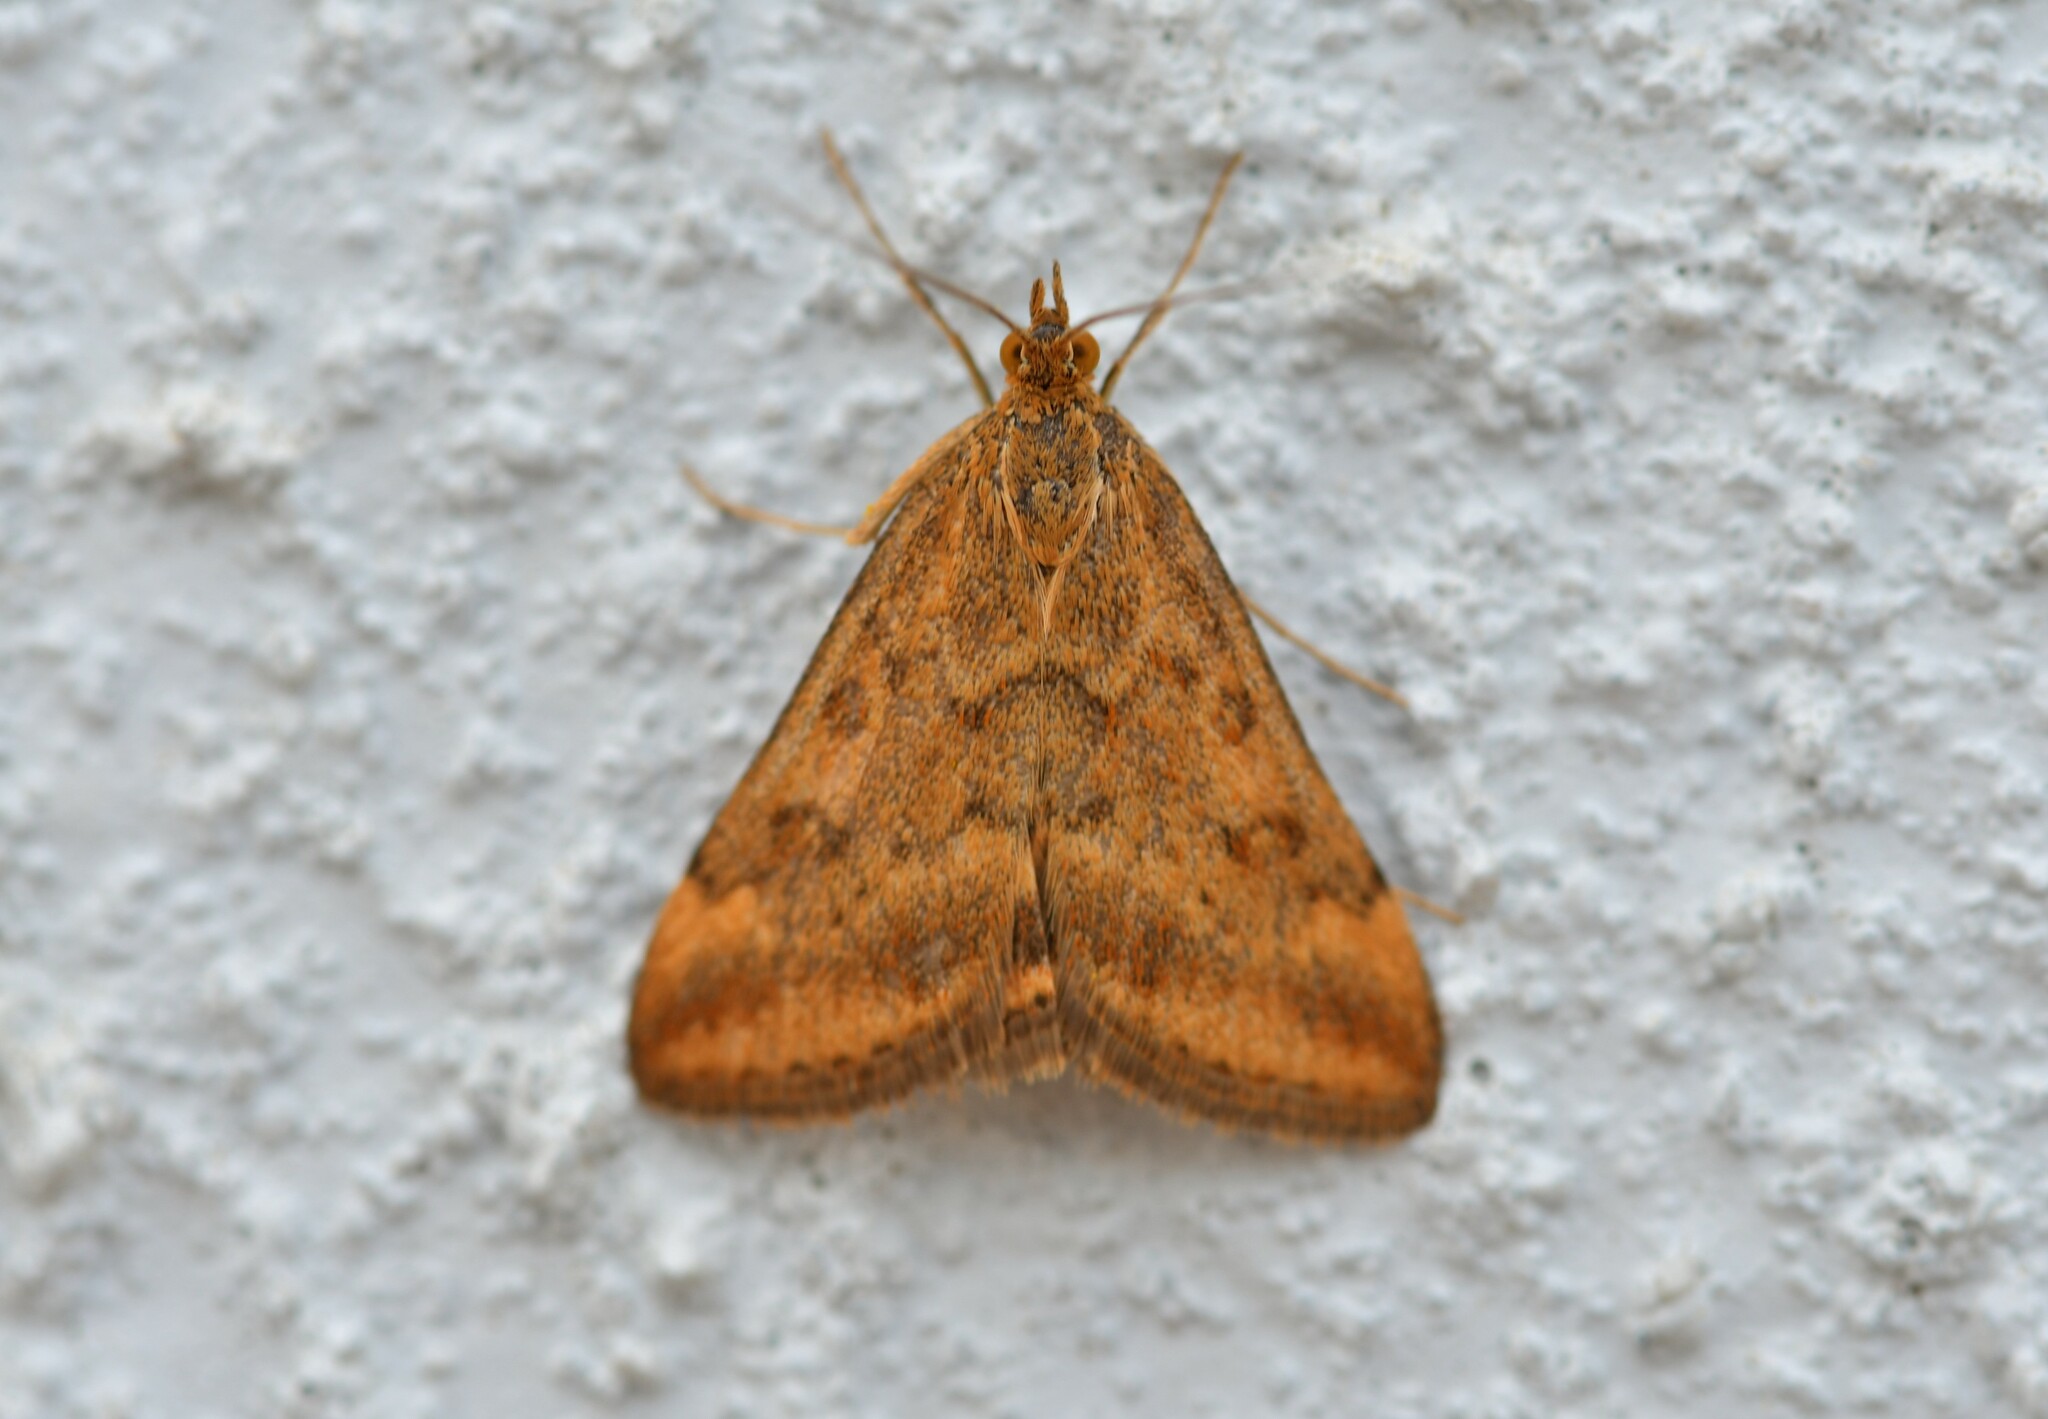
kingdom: Animalia
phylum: Arthropoda
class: Insecta
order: Lepidoptera
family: Crambidae
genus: Pyrausta
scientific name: Pyrausta despicata
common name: Straw-barred pearl
